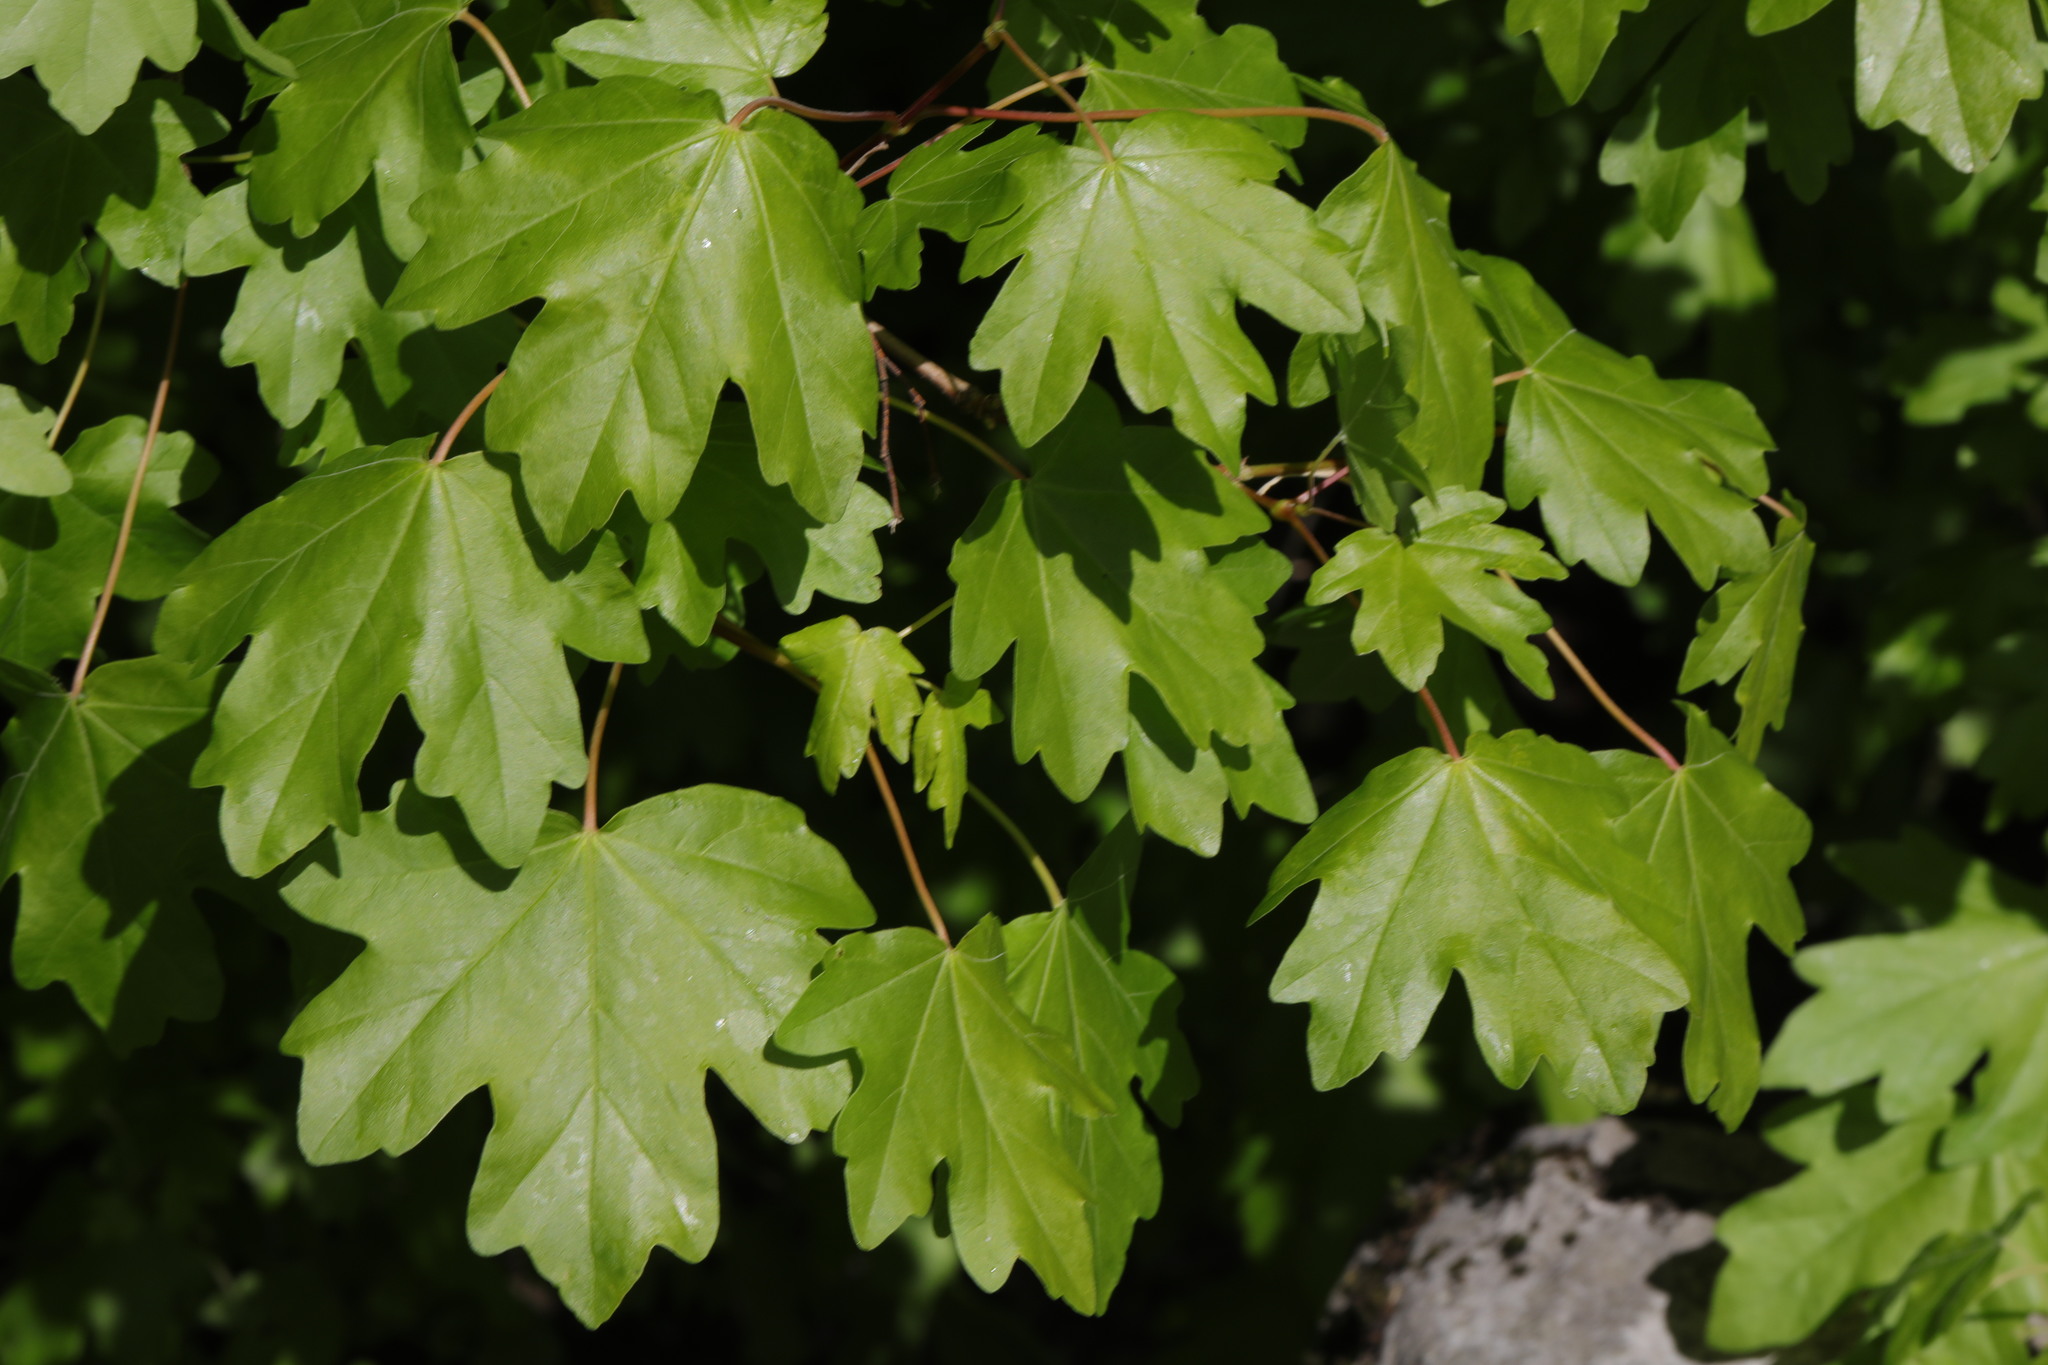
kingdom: Plantae
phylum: Tracheophyta
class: Magnoliopsida
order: Sapindales
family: Sapindaceae
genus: Acer
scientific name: Acer campestre
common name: Field maple
